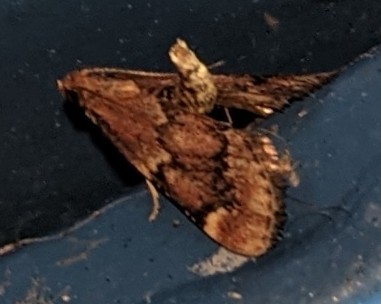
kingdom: Animalia
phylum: Arthropoda
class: Insecta
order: Lepidoptera
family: Pyralidae
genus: Hypsopygia
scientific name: Hypsopygia intermedialis
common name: Red-shawled moth
